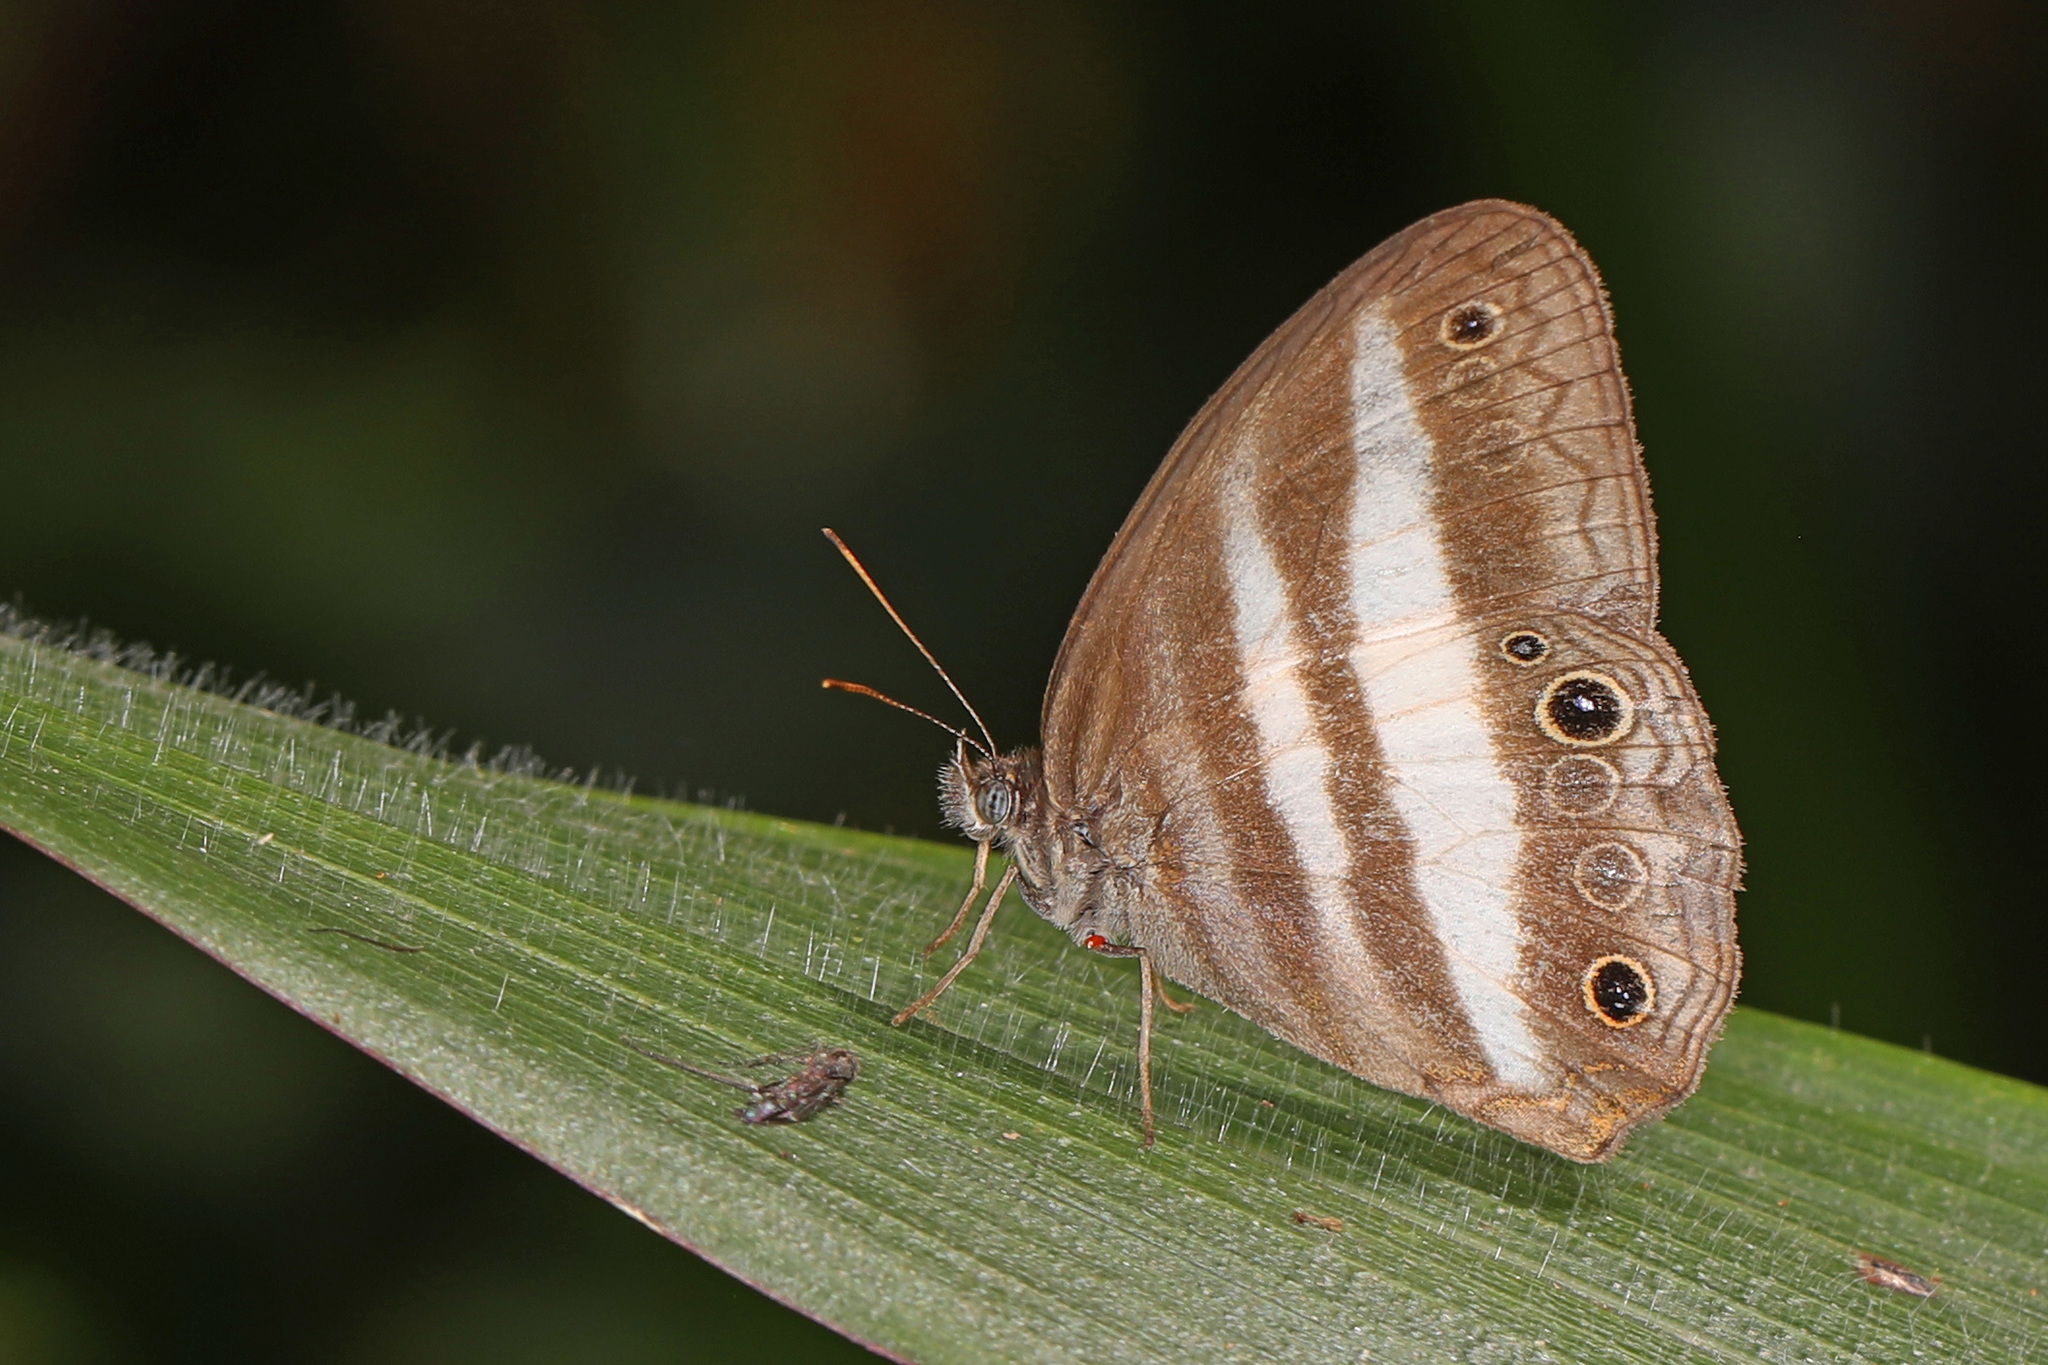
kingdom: Animalia
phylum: Arthropoda
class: Insecta
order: Lepidoptera
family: Nymphalidae
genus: Pareuptychia
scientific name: Pareuptychia hesione
